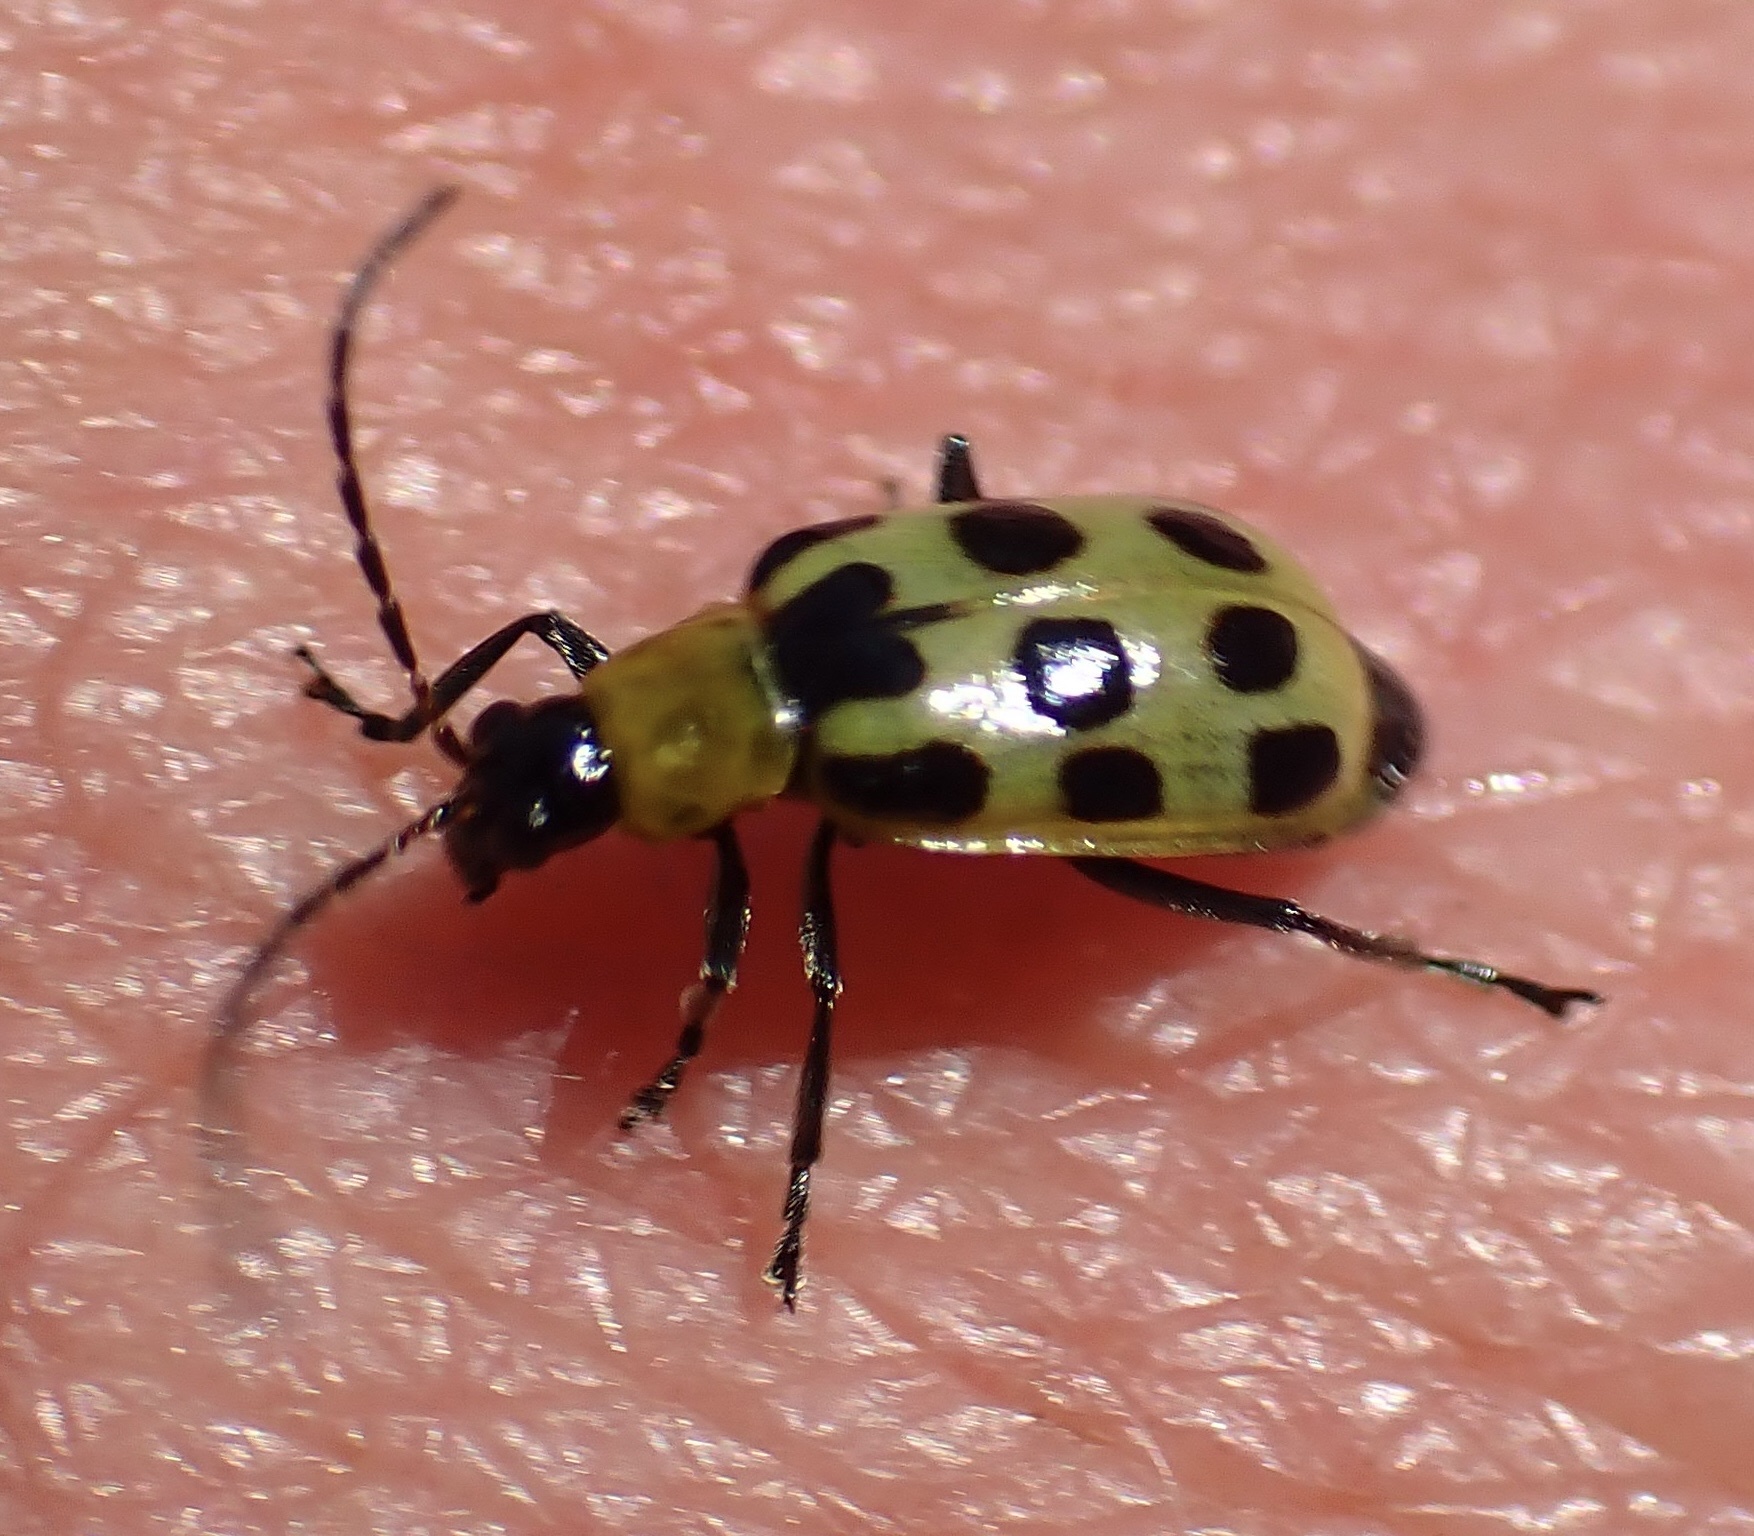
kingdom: Animalia
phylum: Arthropoda
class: Insecta
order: Coleoptera
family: Chrysomelidae
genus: Diabrotica
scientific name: Diabrotica undecimpunctata
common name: Spotted cucumber beetle
